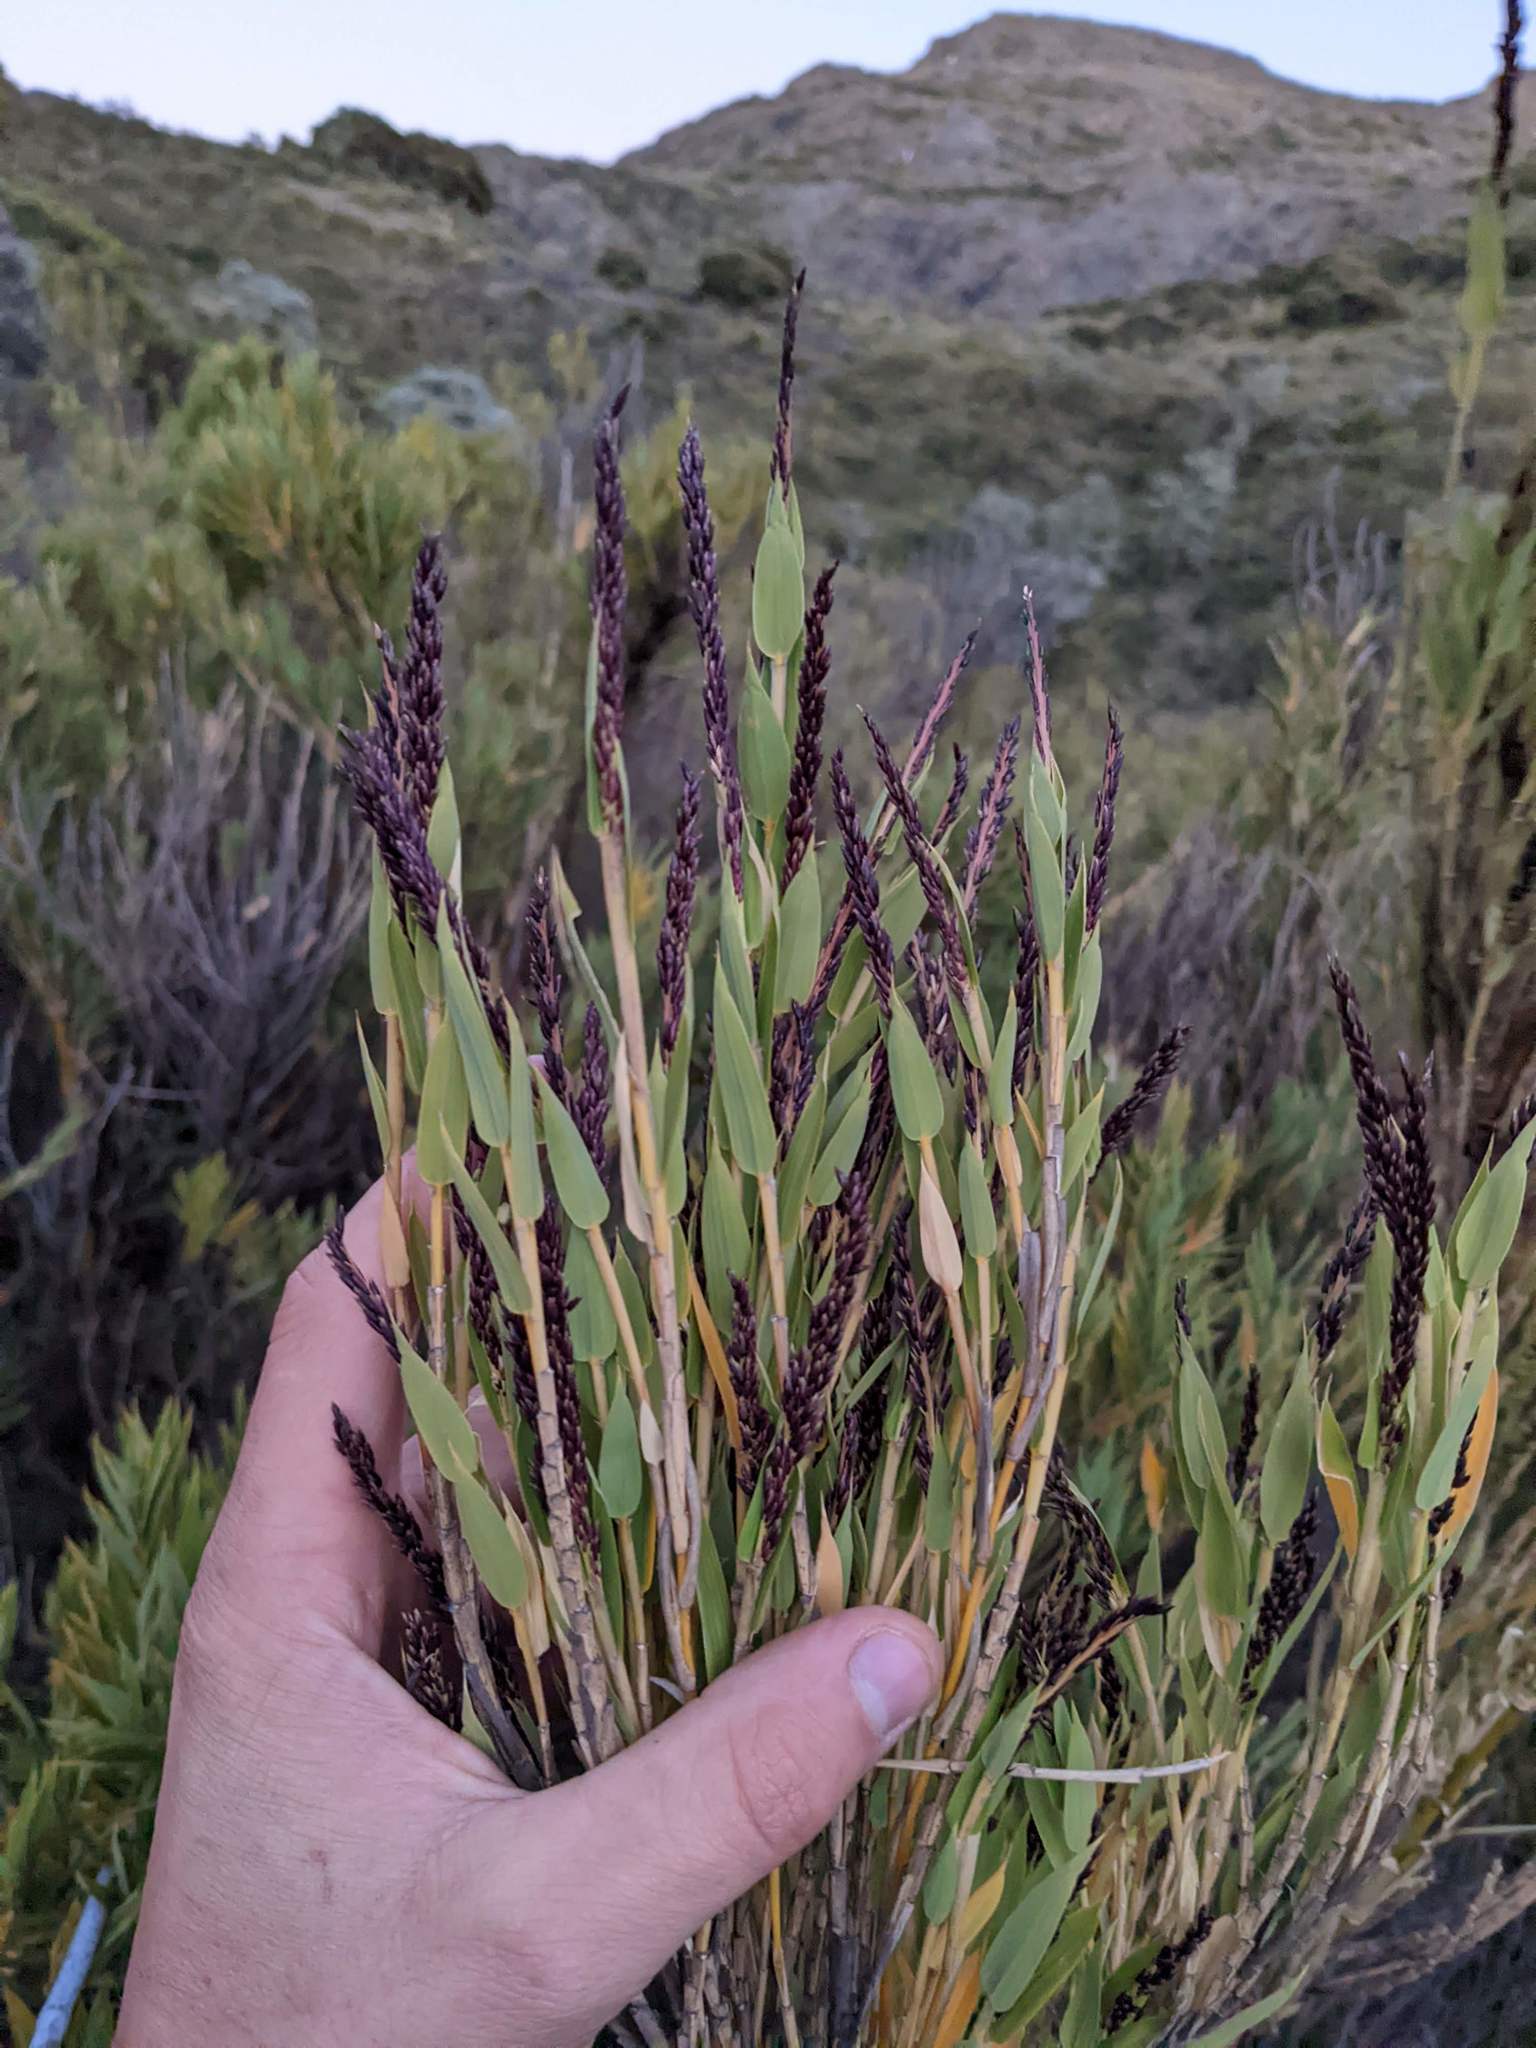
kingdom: Plantae
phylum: Tracheophyta
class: Liliopsida
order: Poales
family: Poaceae
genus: Chusquea
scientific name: Chusquea subtessellata
